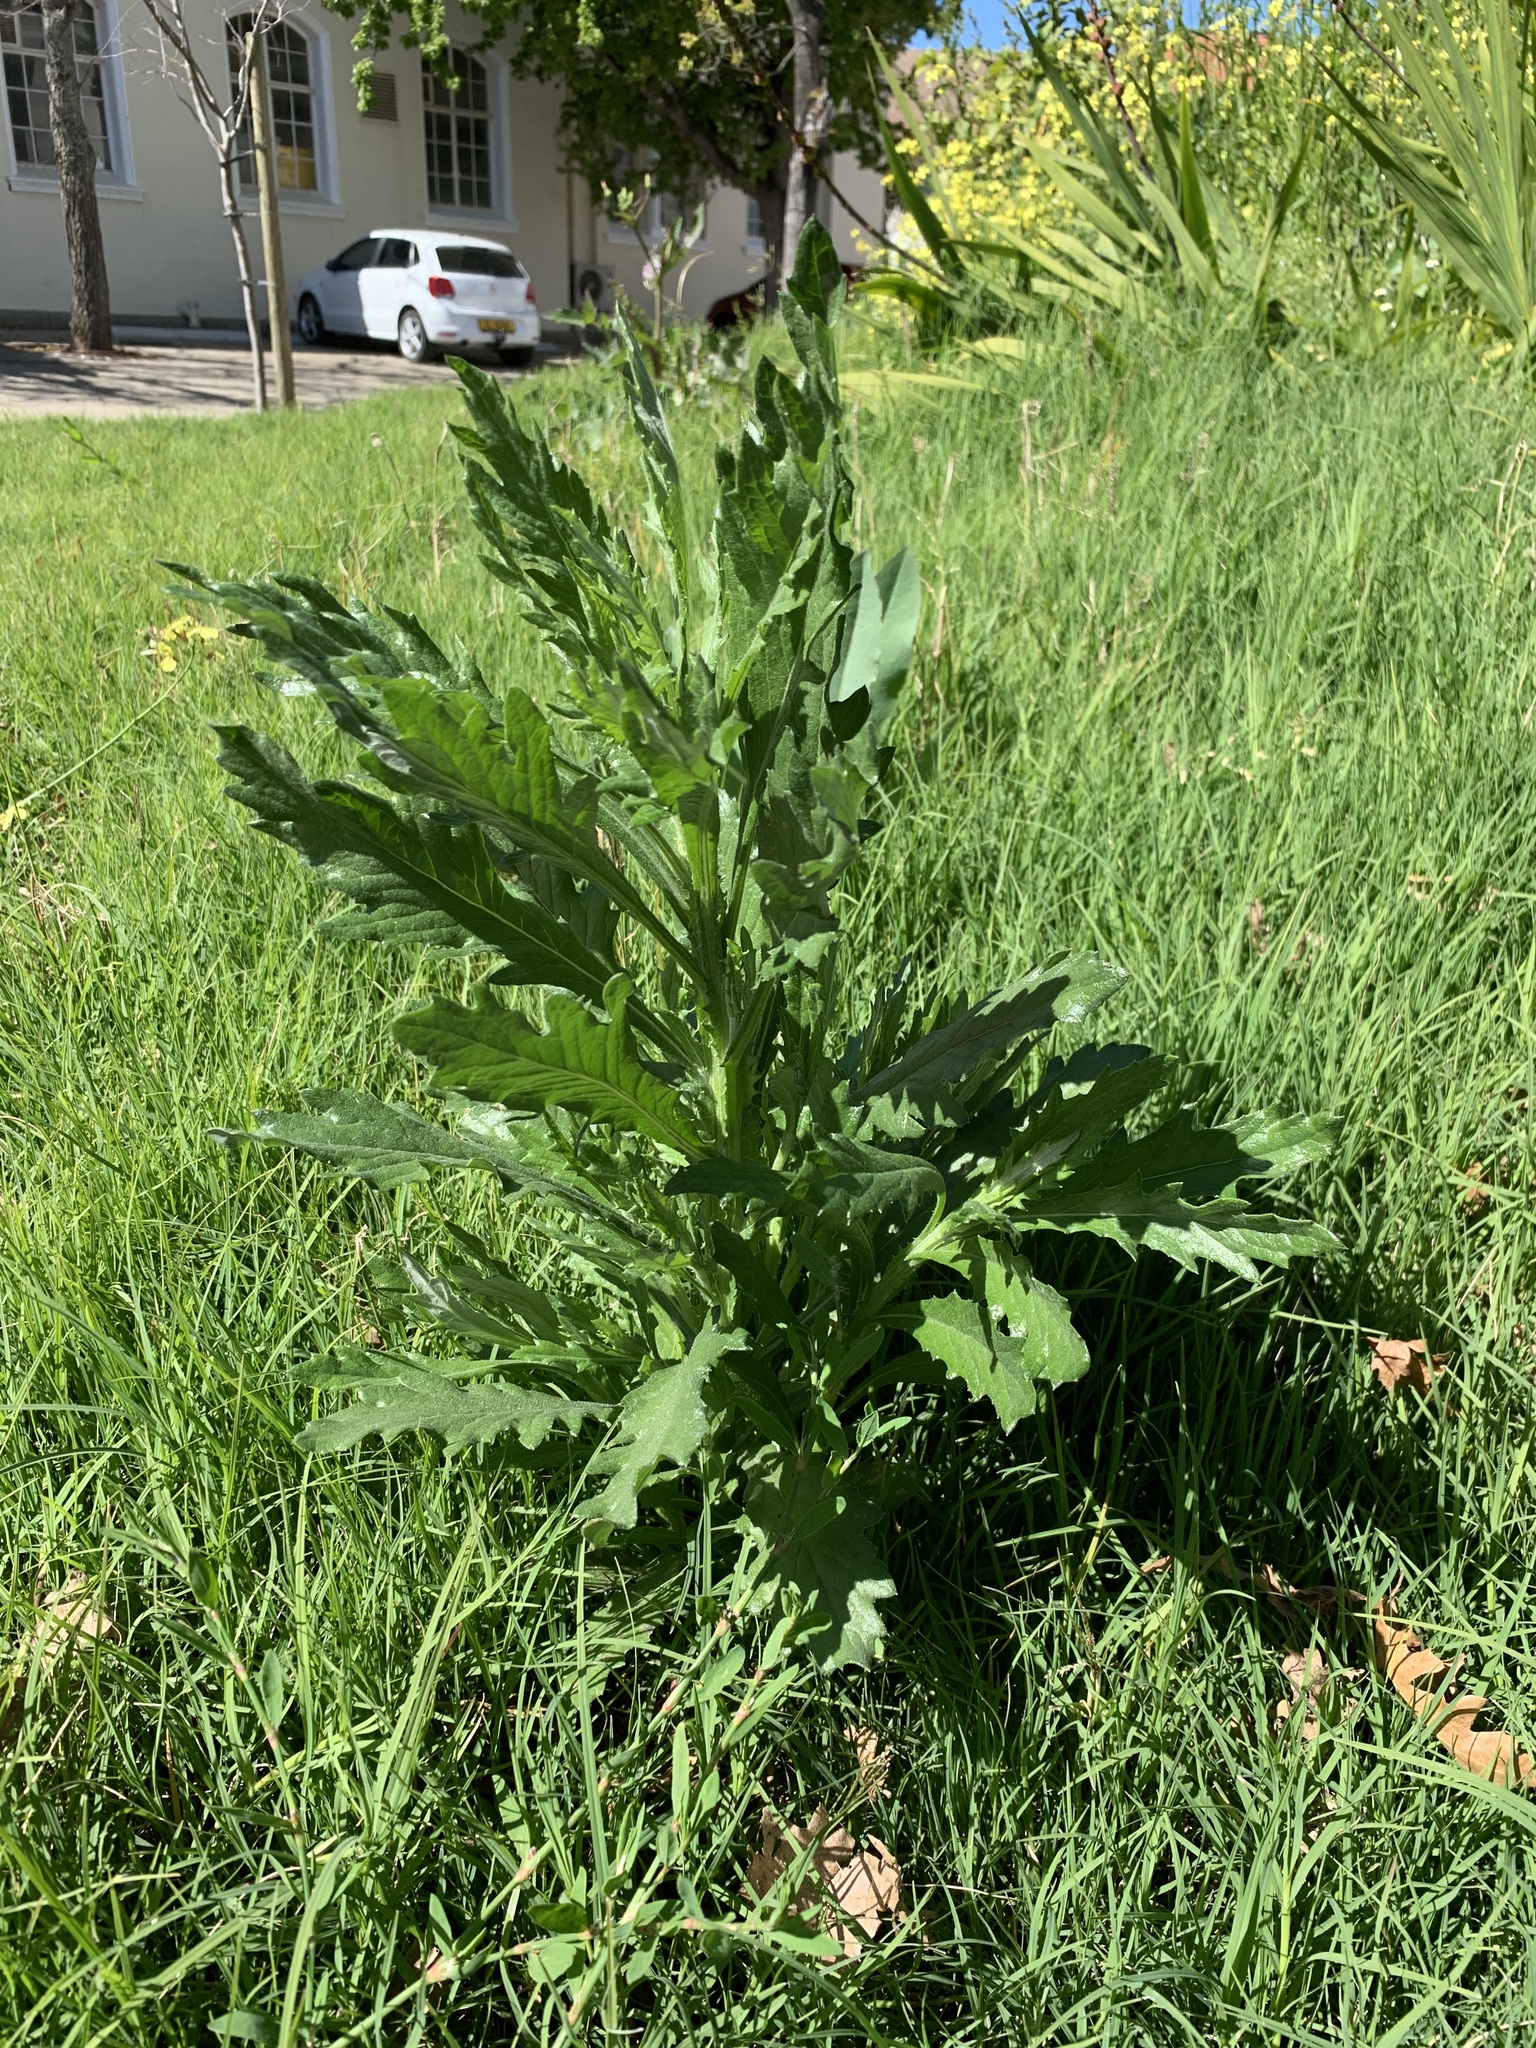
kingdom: Plantae
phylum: Tracheophyta
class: Magnoliopsida
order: Asterales
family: Asteraceae
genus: Senecio
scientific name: Senecio pterophorus
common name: Shoddy ragwort
